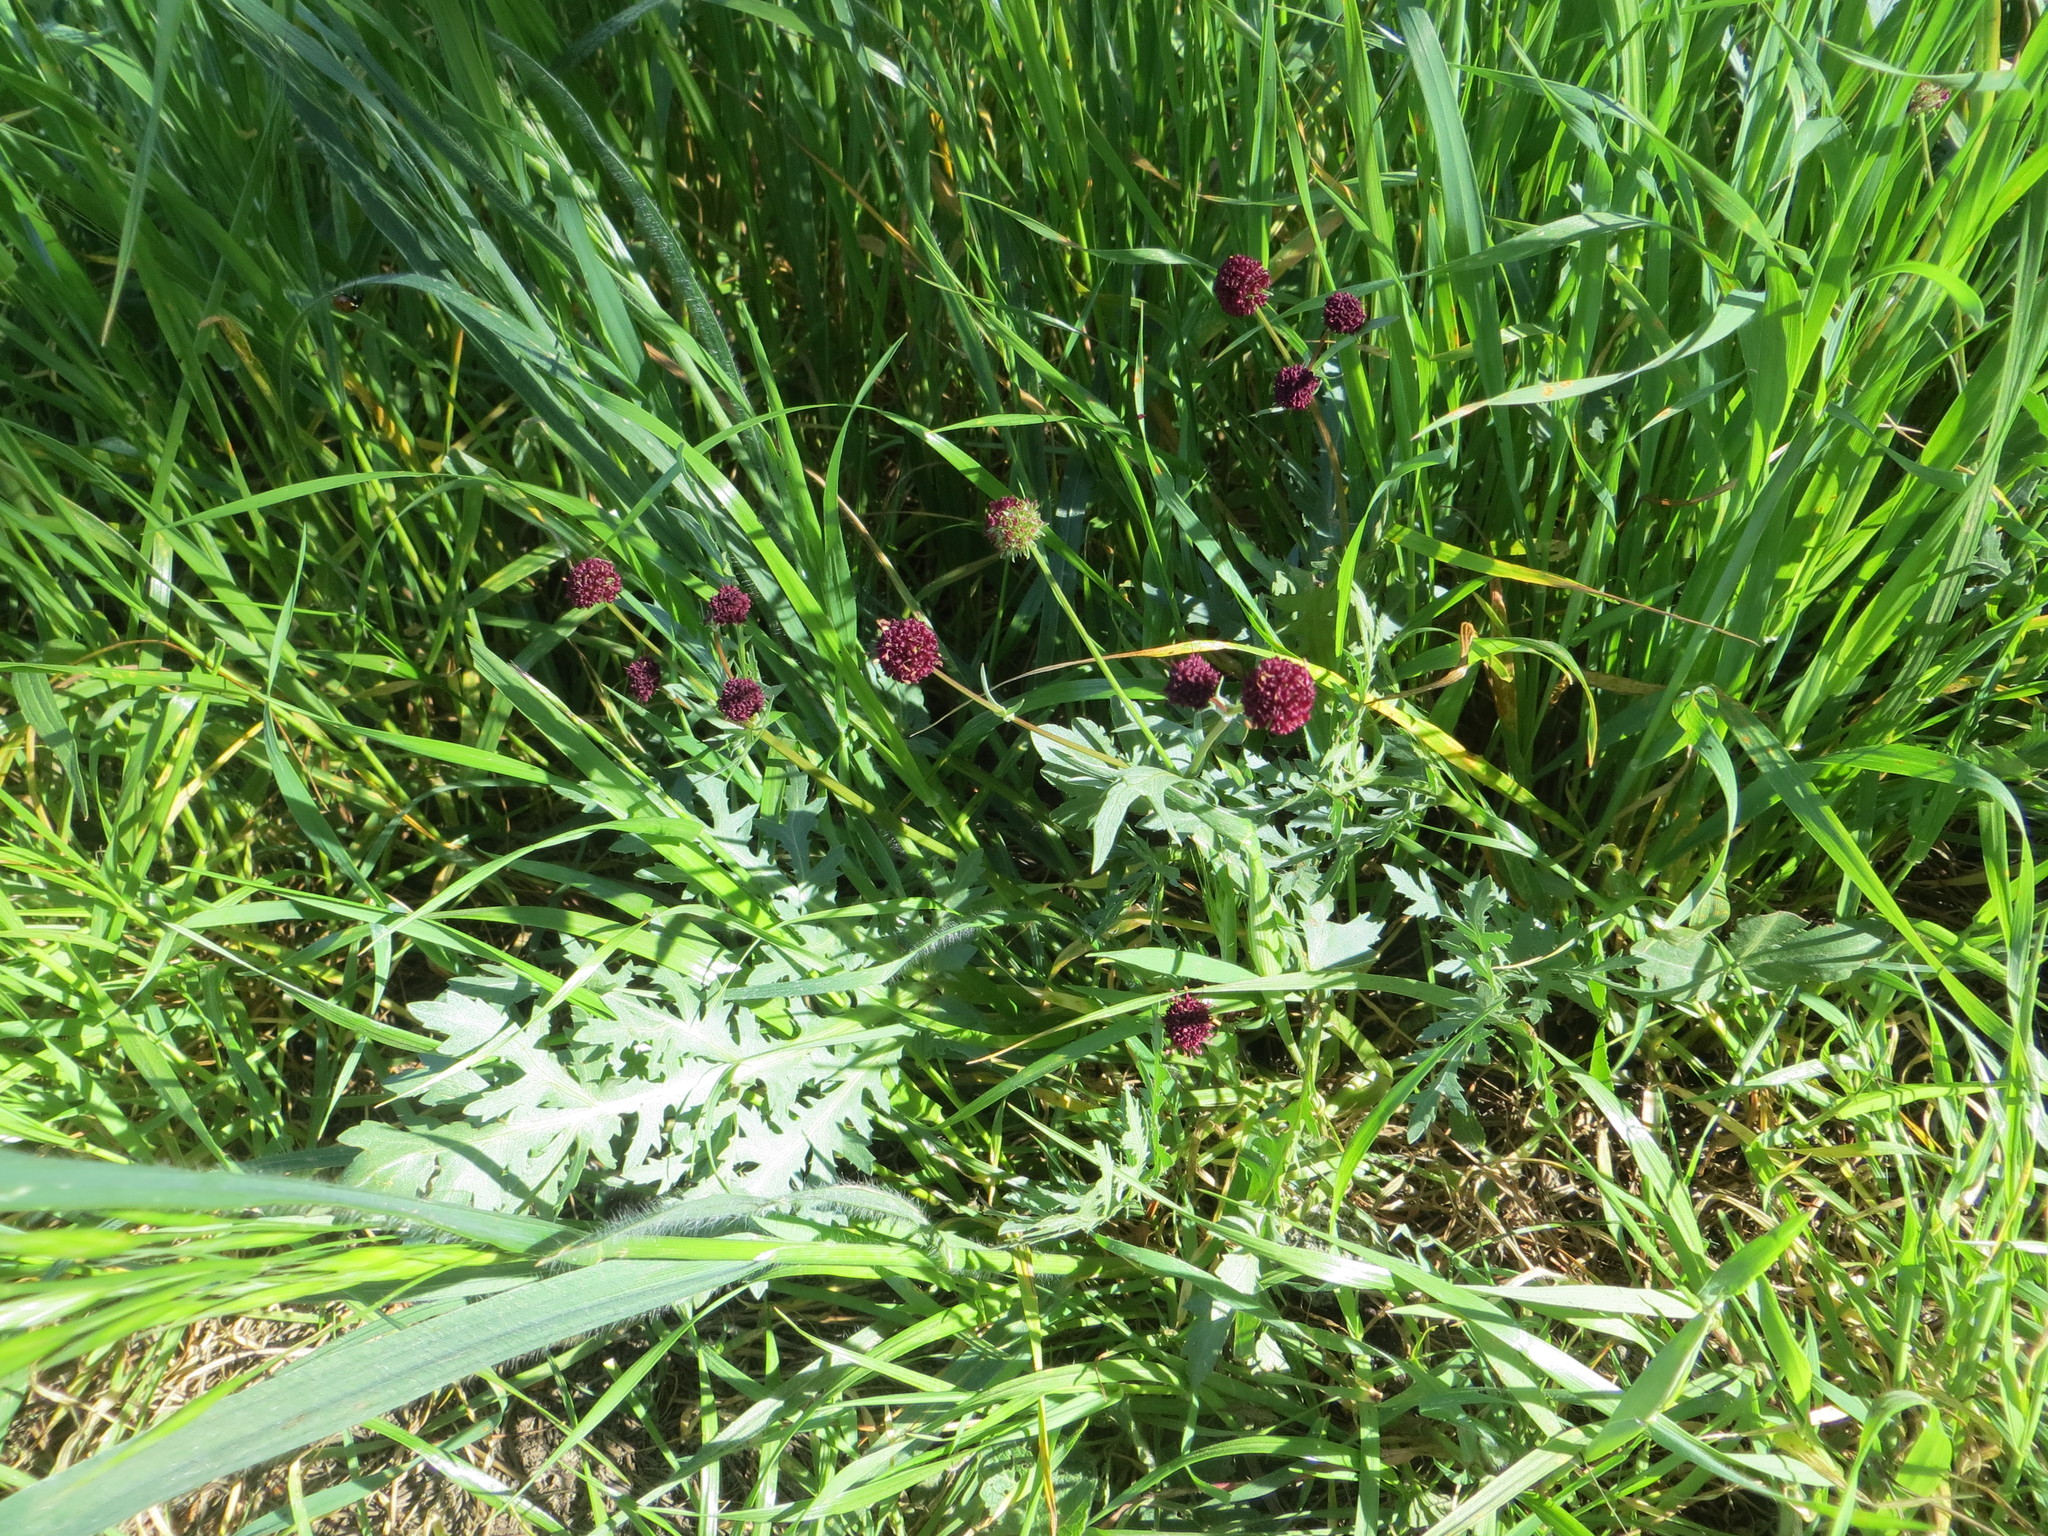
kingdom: Plantae
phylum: Tracheophyta
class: Magnoliopsida
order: Apiales
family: Apiaceae
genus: Sanicula
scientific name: Sanicula bipinnatifida
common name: Shoe-buttons
